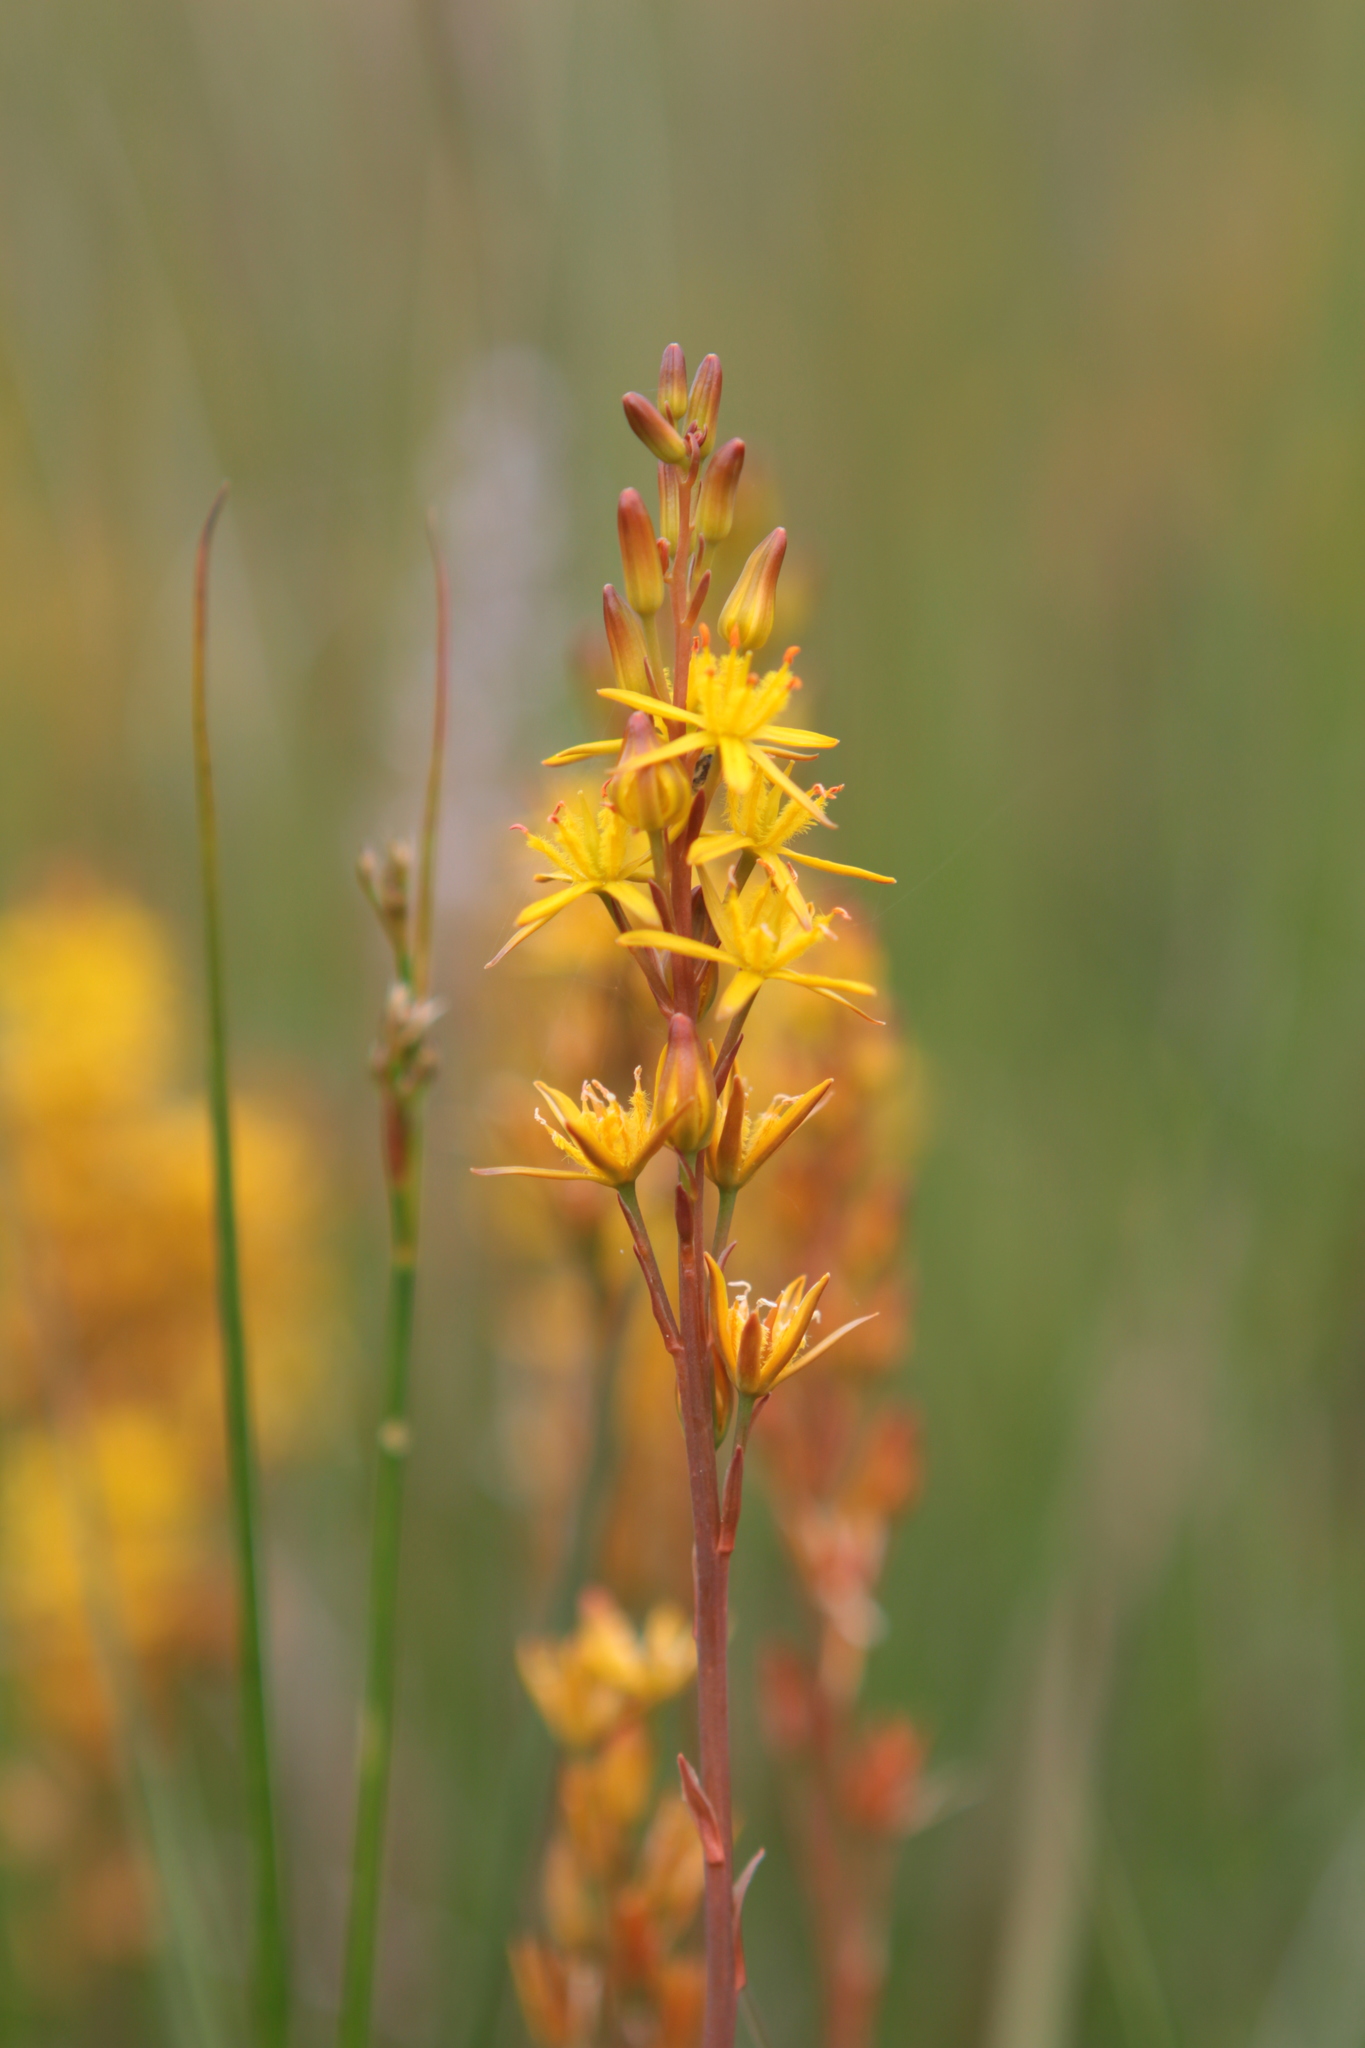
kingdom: Plantae
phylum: Tracheophyta
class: Liliopsida
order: Dioscoreales
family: Nartheciaceae
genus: Narthecium
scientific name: Narthecium ossifragum
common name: Bog asphodel
